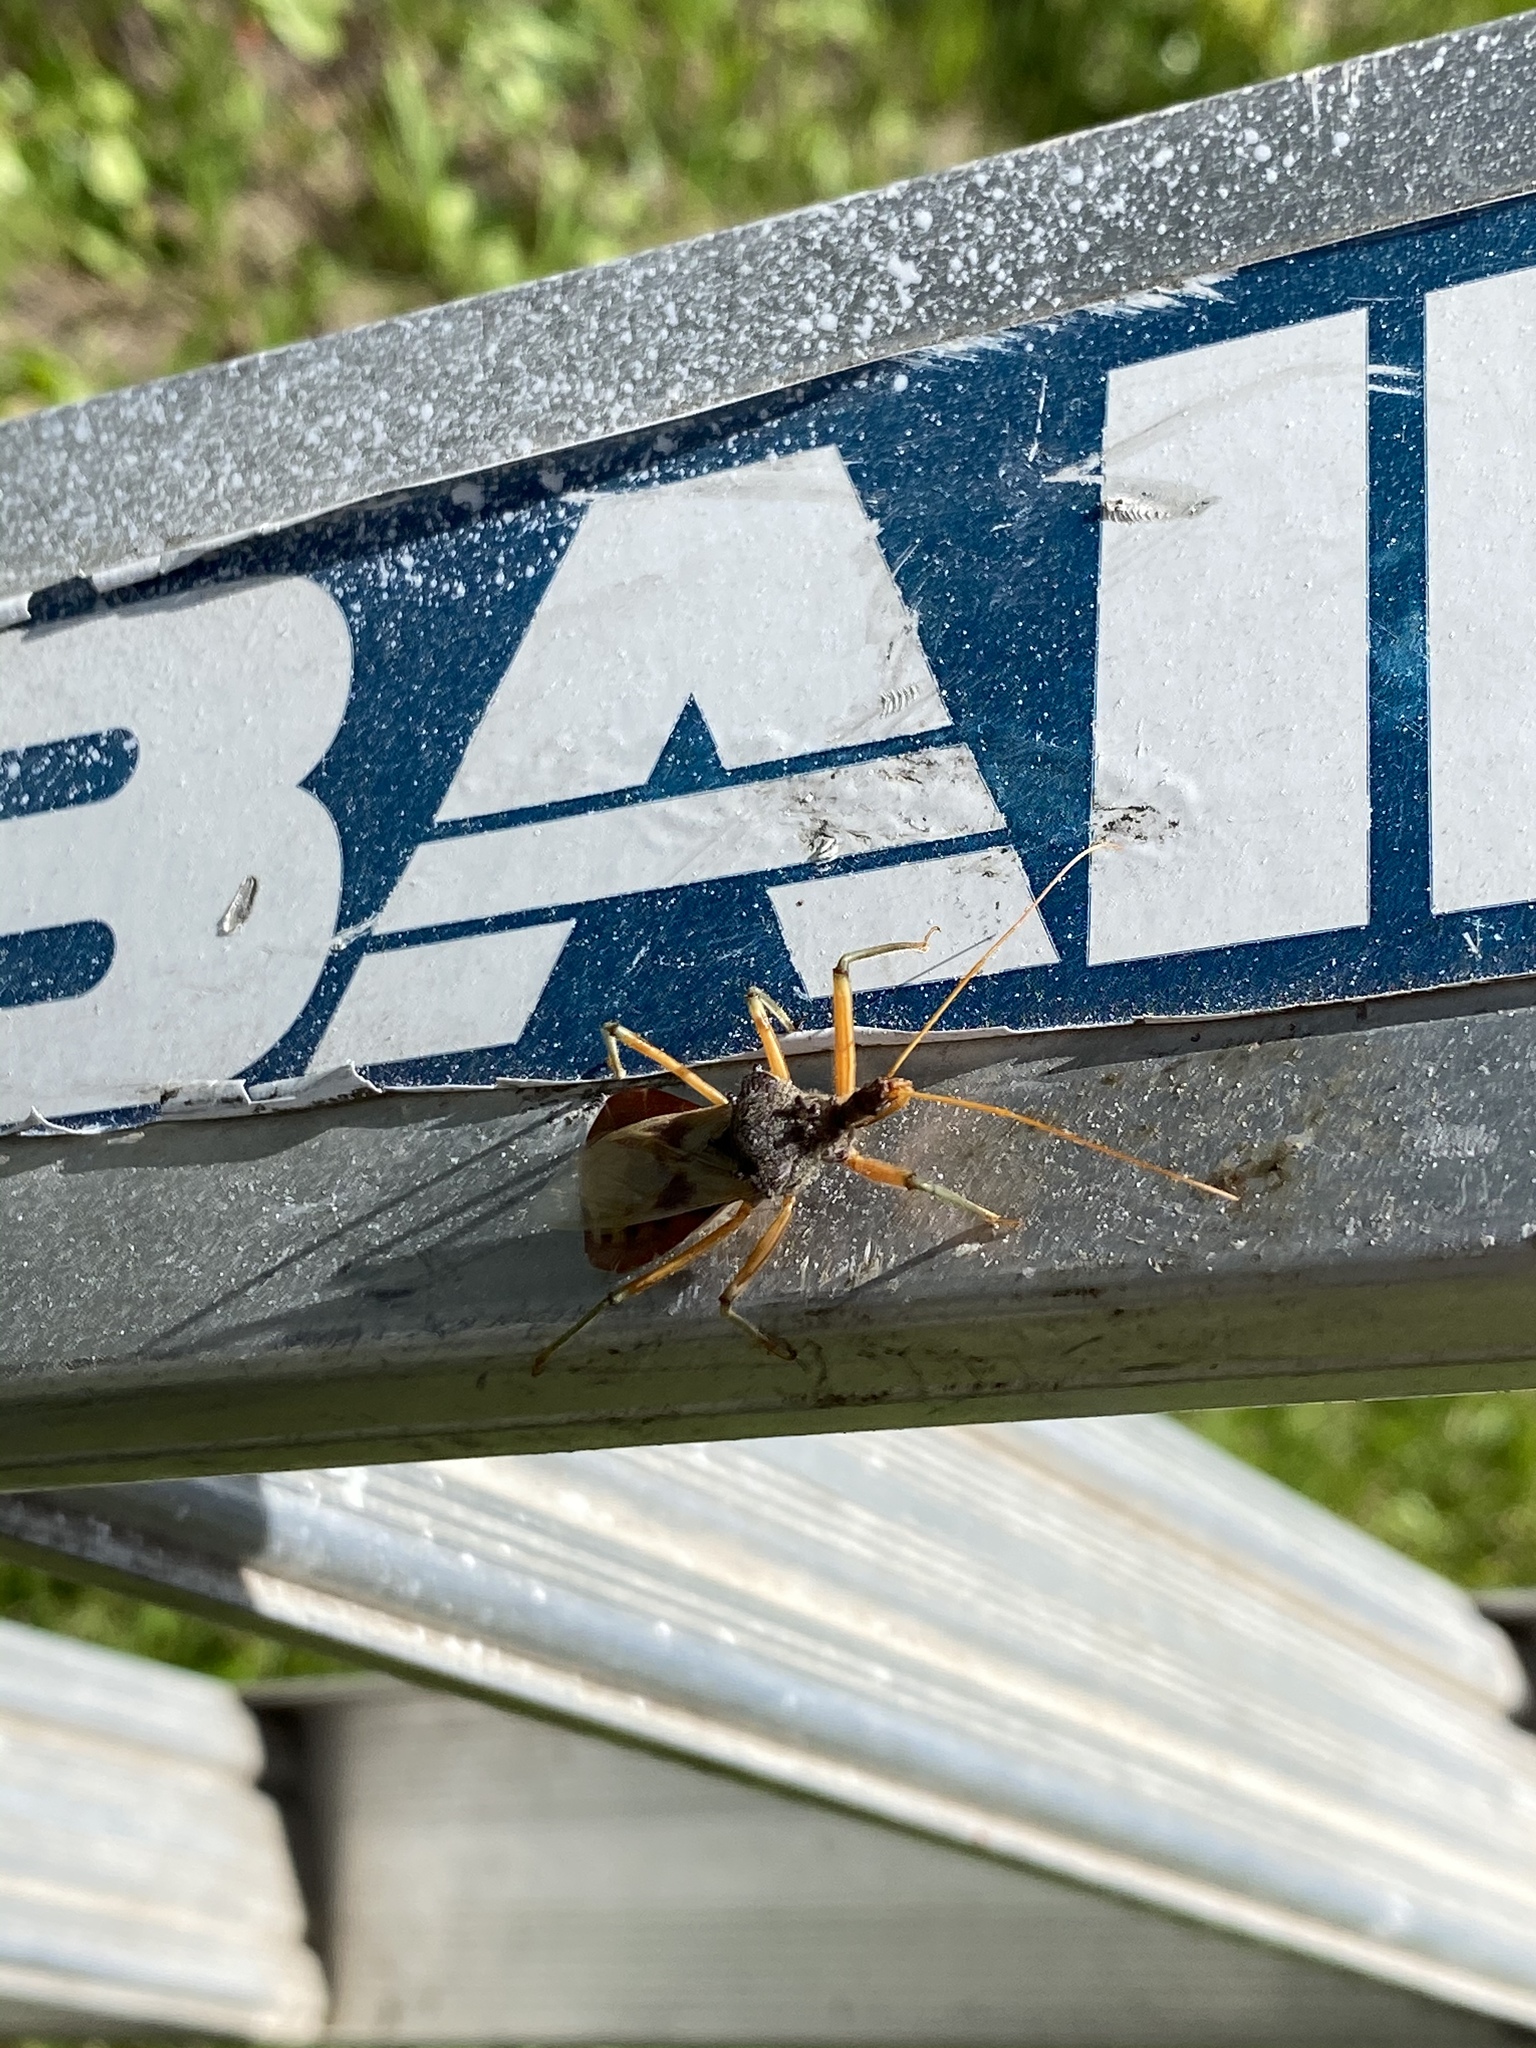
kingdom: Animalia
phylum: Arthropoda
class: Insecta
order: Hemiptera
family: Reduviidae
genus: Pristhesancus
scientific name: Pristhesancus plagipennis
